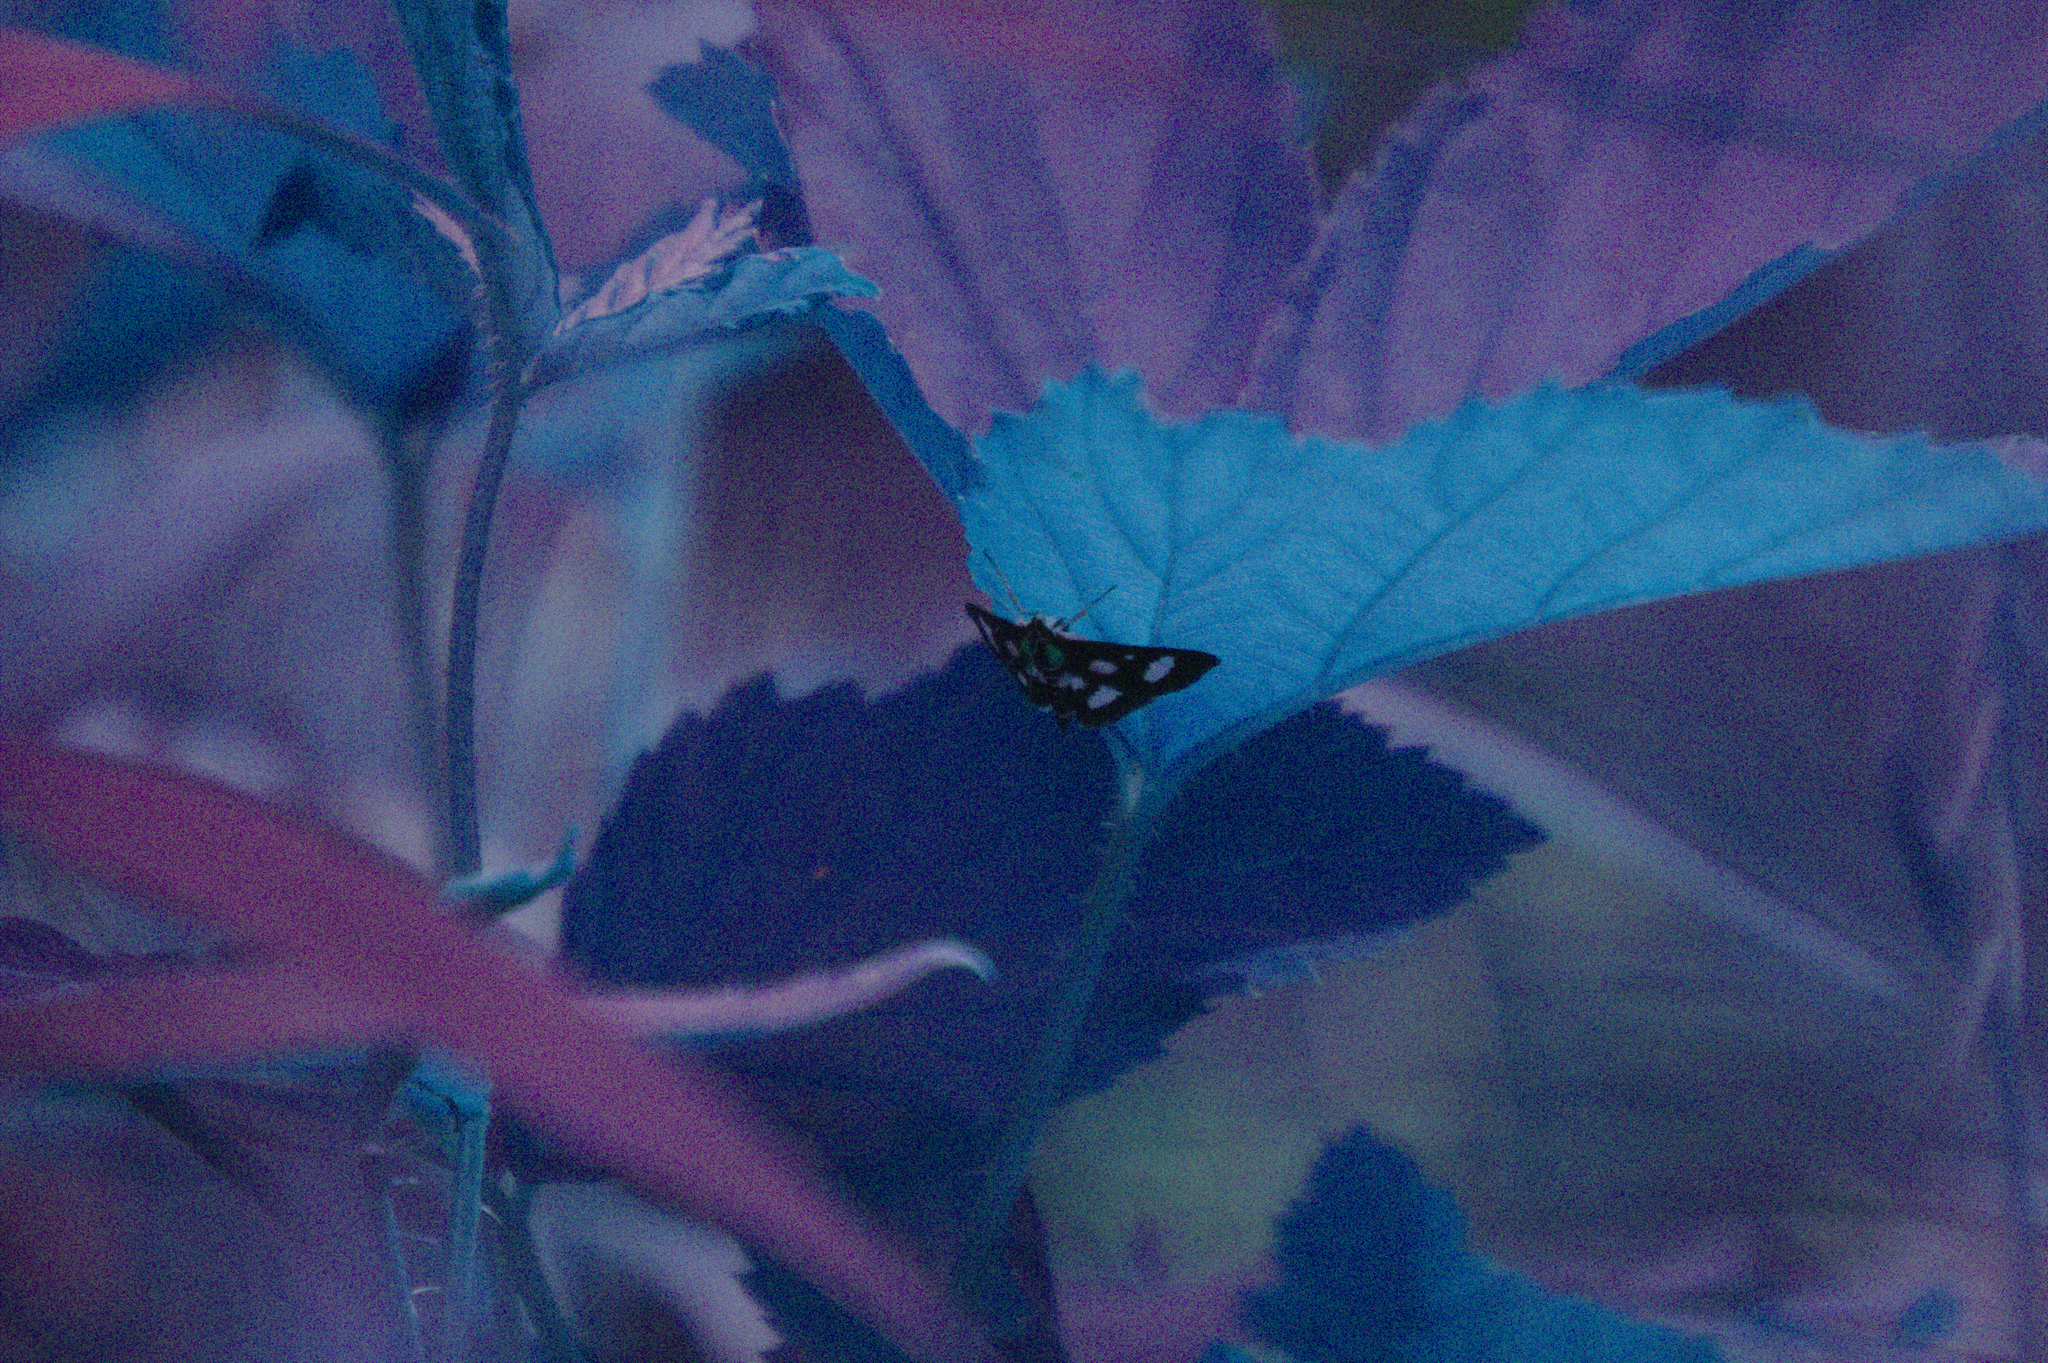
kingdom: Animalia
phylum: Arthropoda
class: Insecta
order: Lepidoptera
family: Crambidae
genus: Anania
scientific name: Anania funebris
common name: White-spotted sable moth
